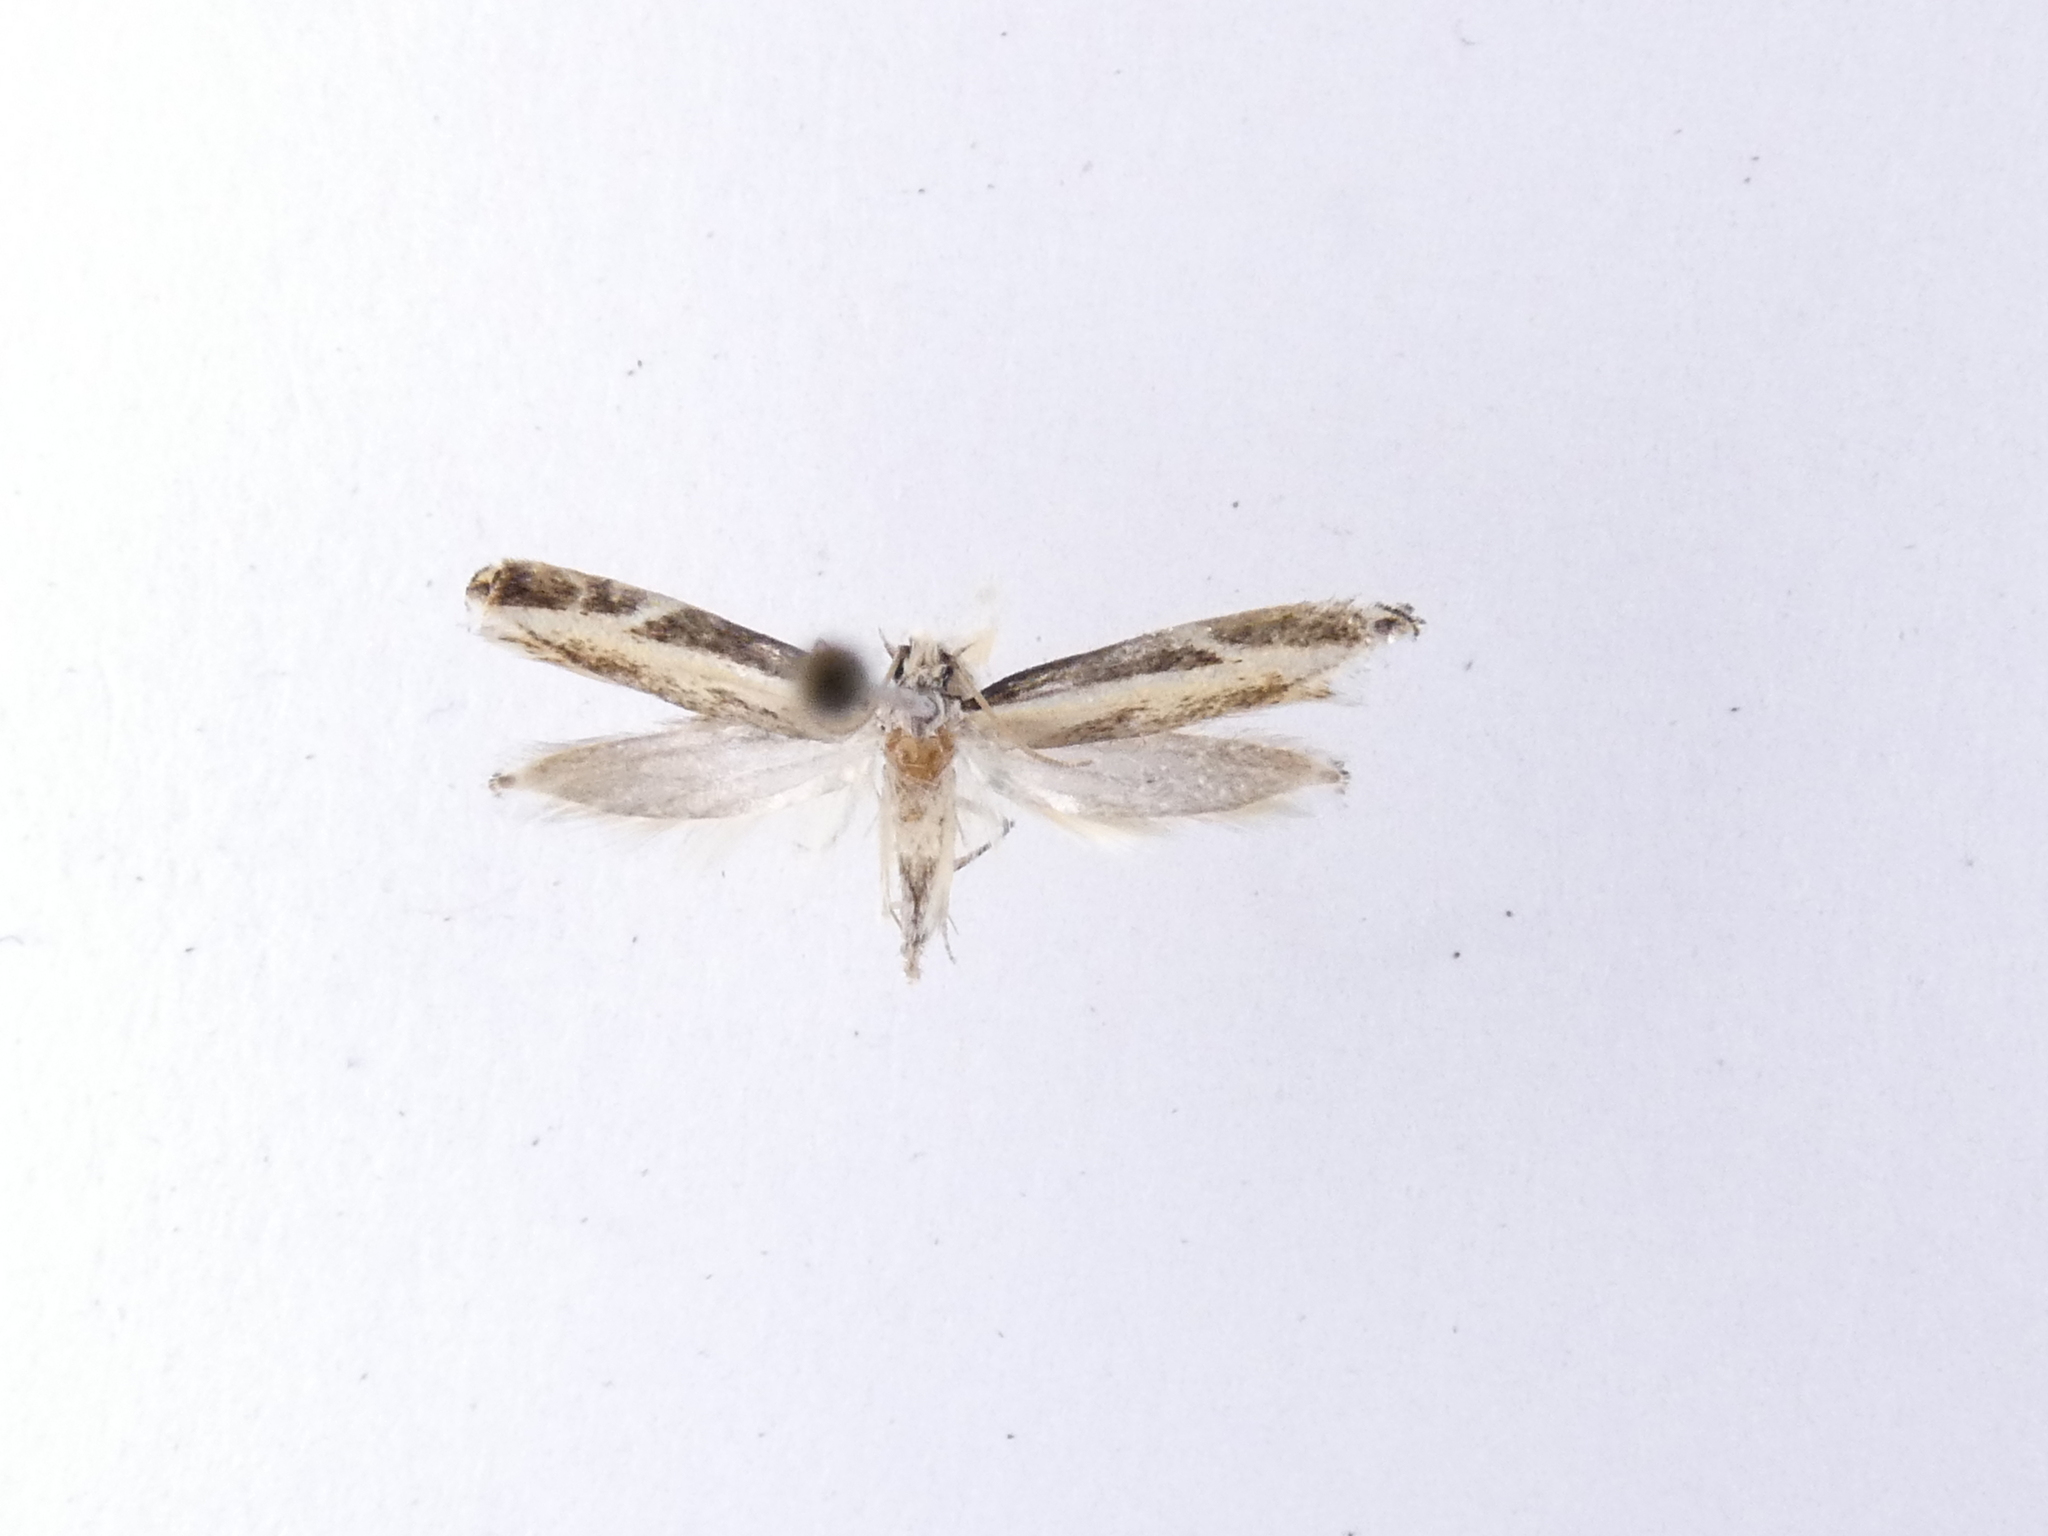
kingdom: Animalia
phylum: Arthropoda
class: Insecta
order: Lepidoptera
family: Tineidae
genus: Erechthias
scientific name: Erechthias terminella
